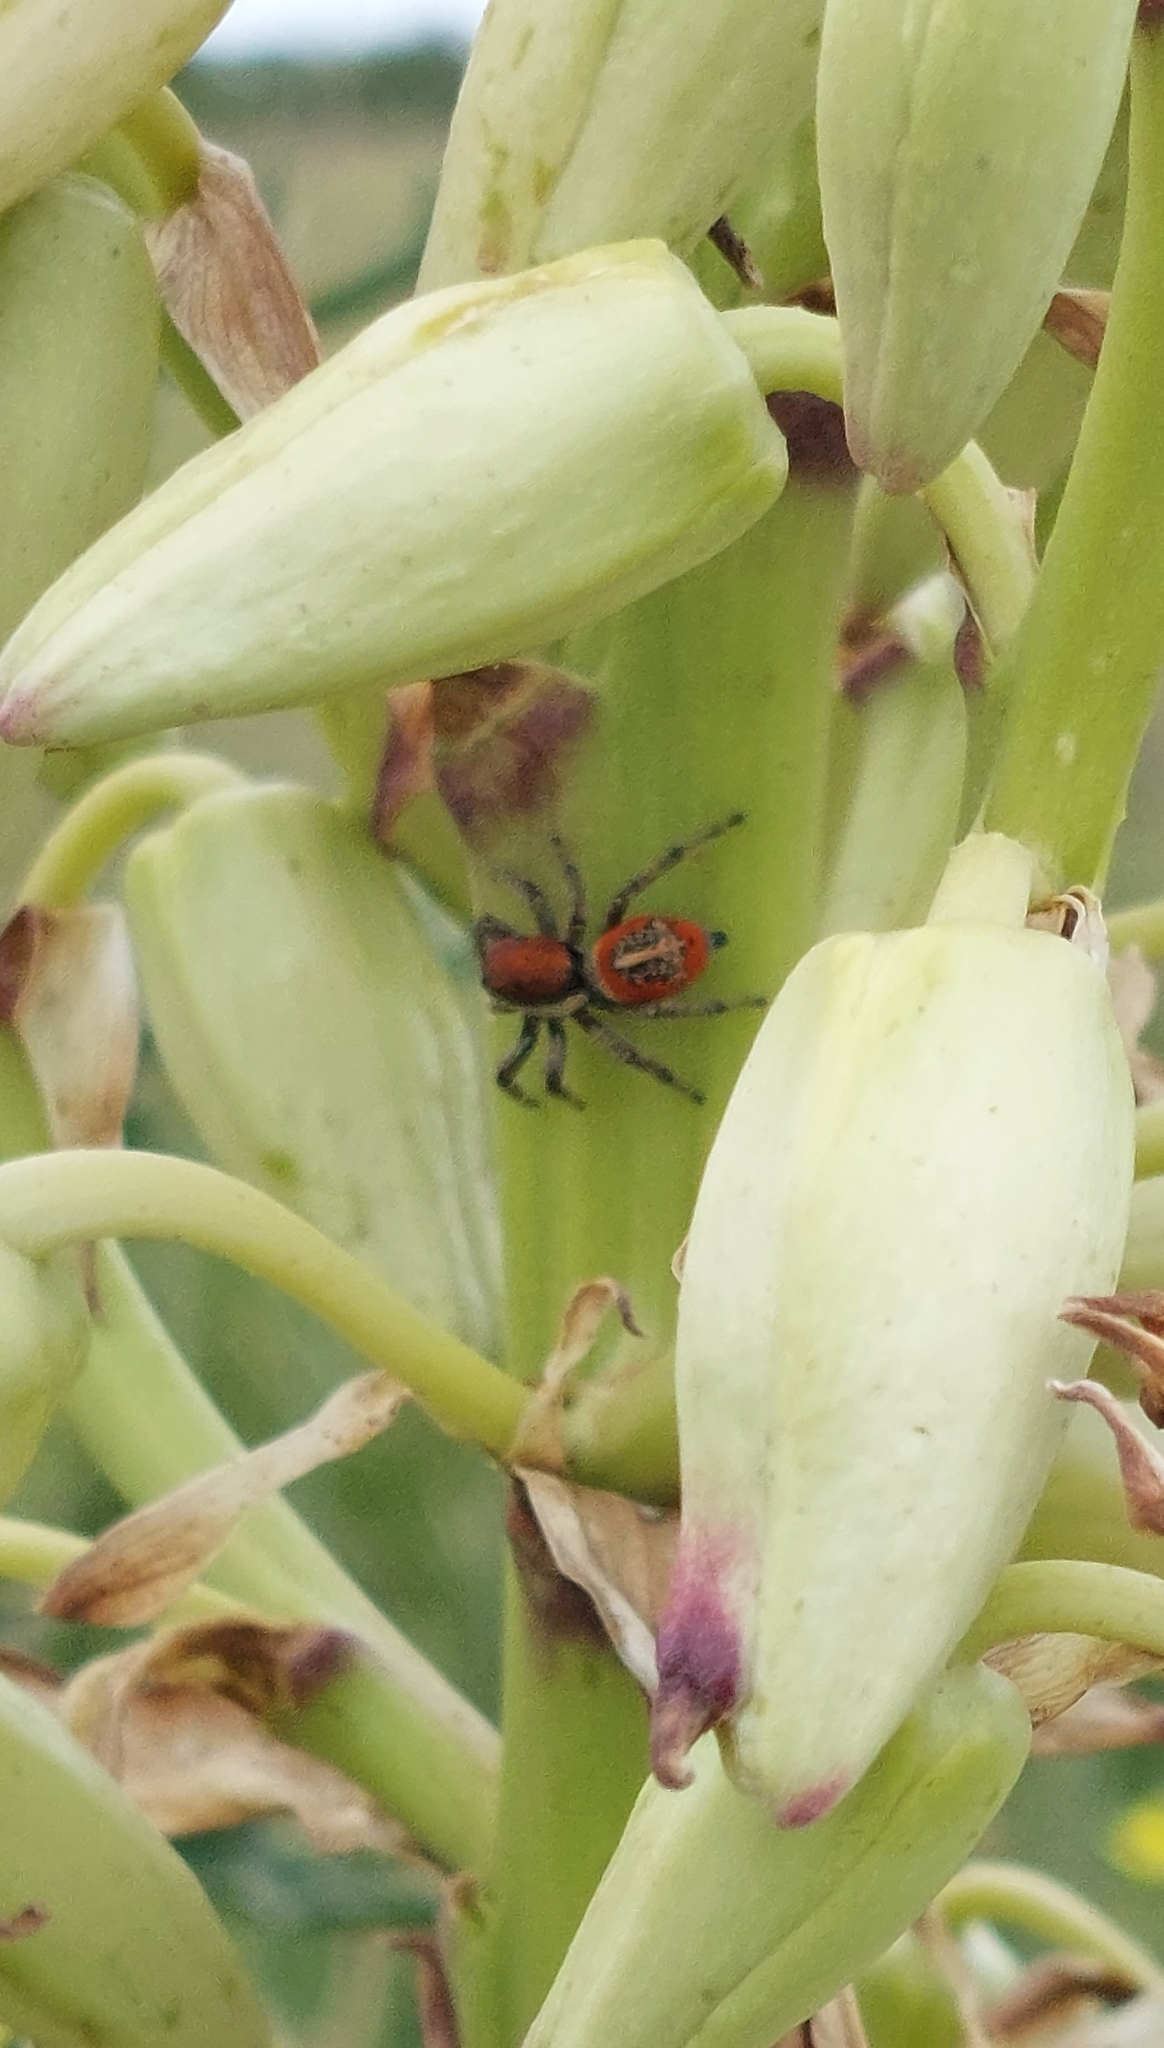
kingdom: Animalia
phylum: Arthropoda
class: Arachnida
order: Araneae
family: Salticidae
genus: Phiale
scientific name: Phiale roburifoliata
